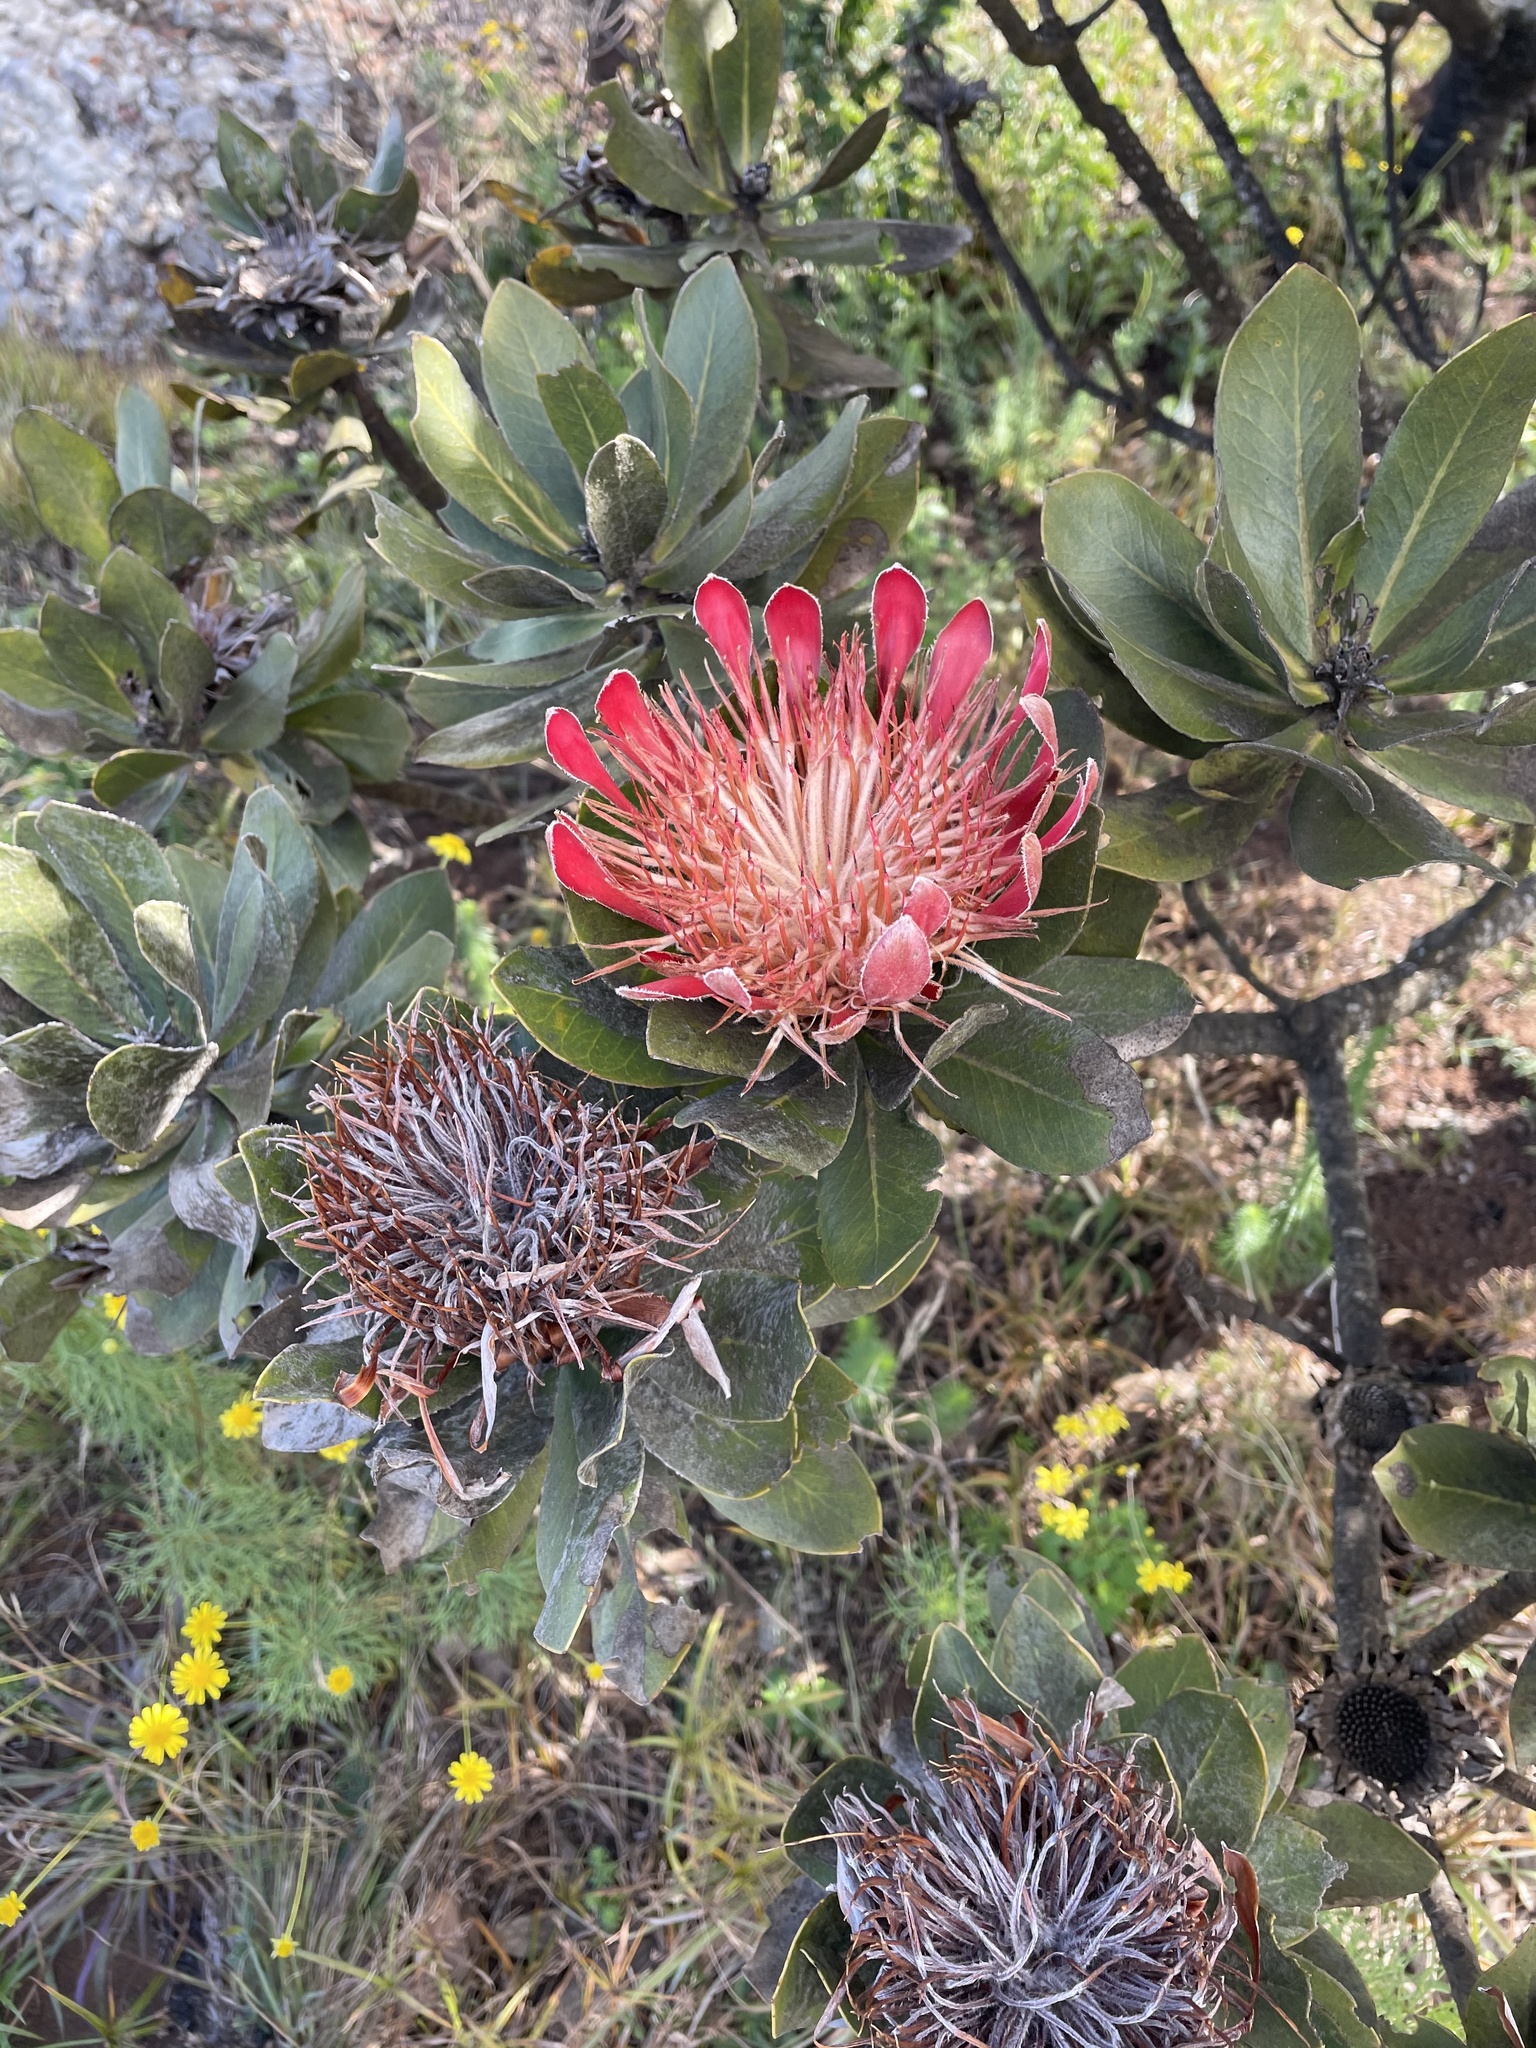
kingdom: Plantae
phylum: Tracheophyta
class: Magnoliopsida
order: Proteales
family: Proteaceae
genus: Protea
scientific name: Protea roupelliae
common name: Silver sugarbush
